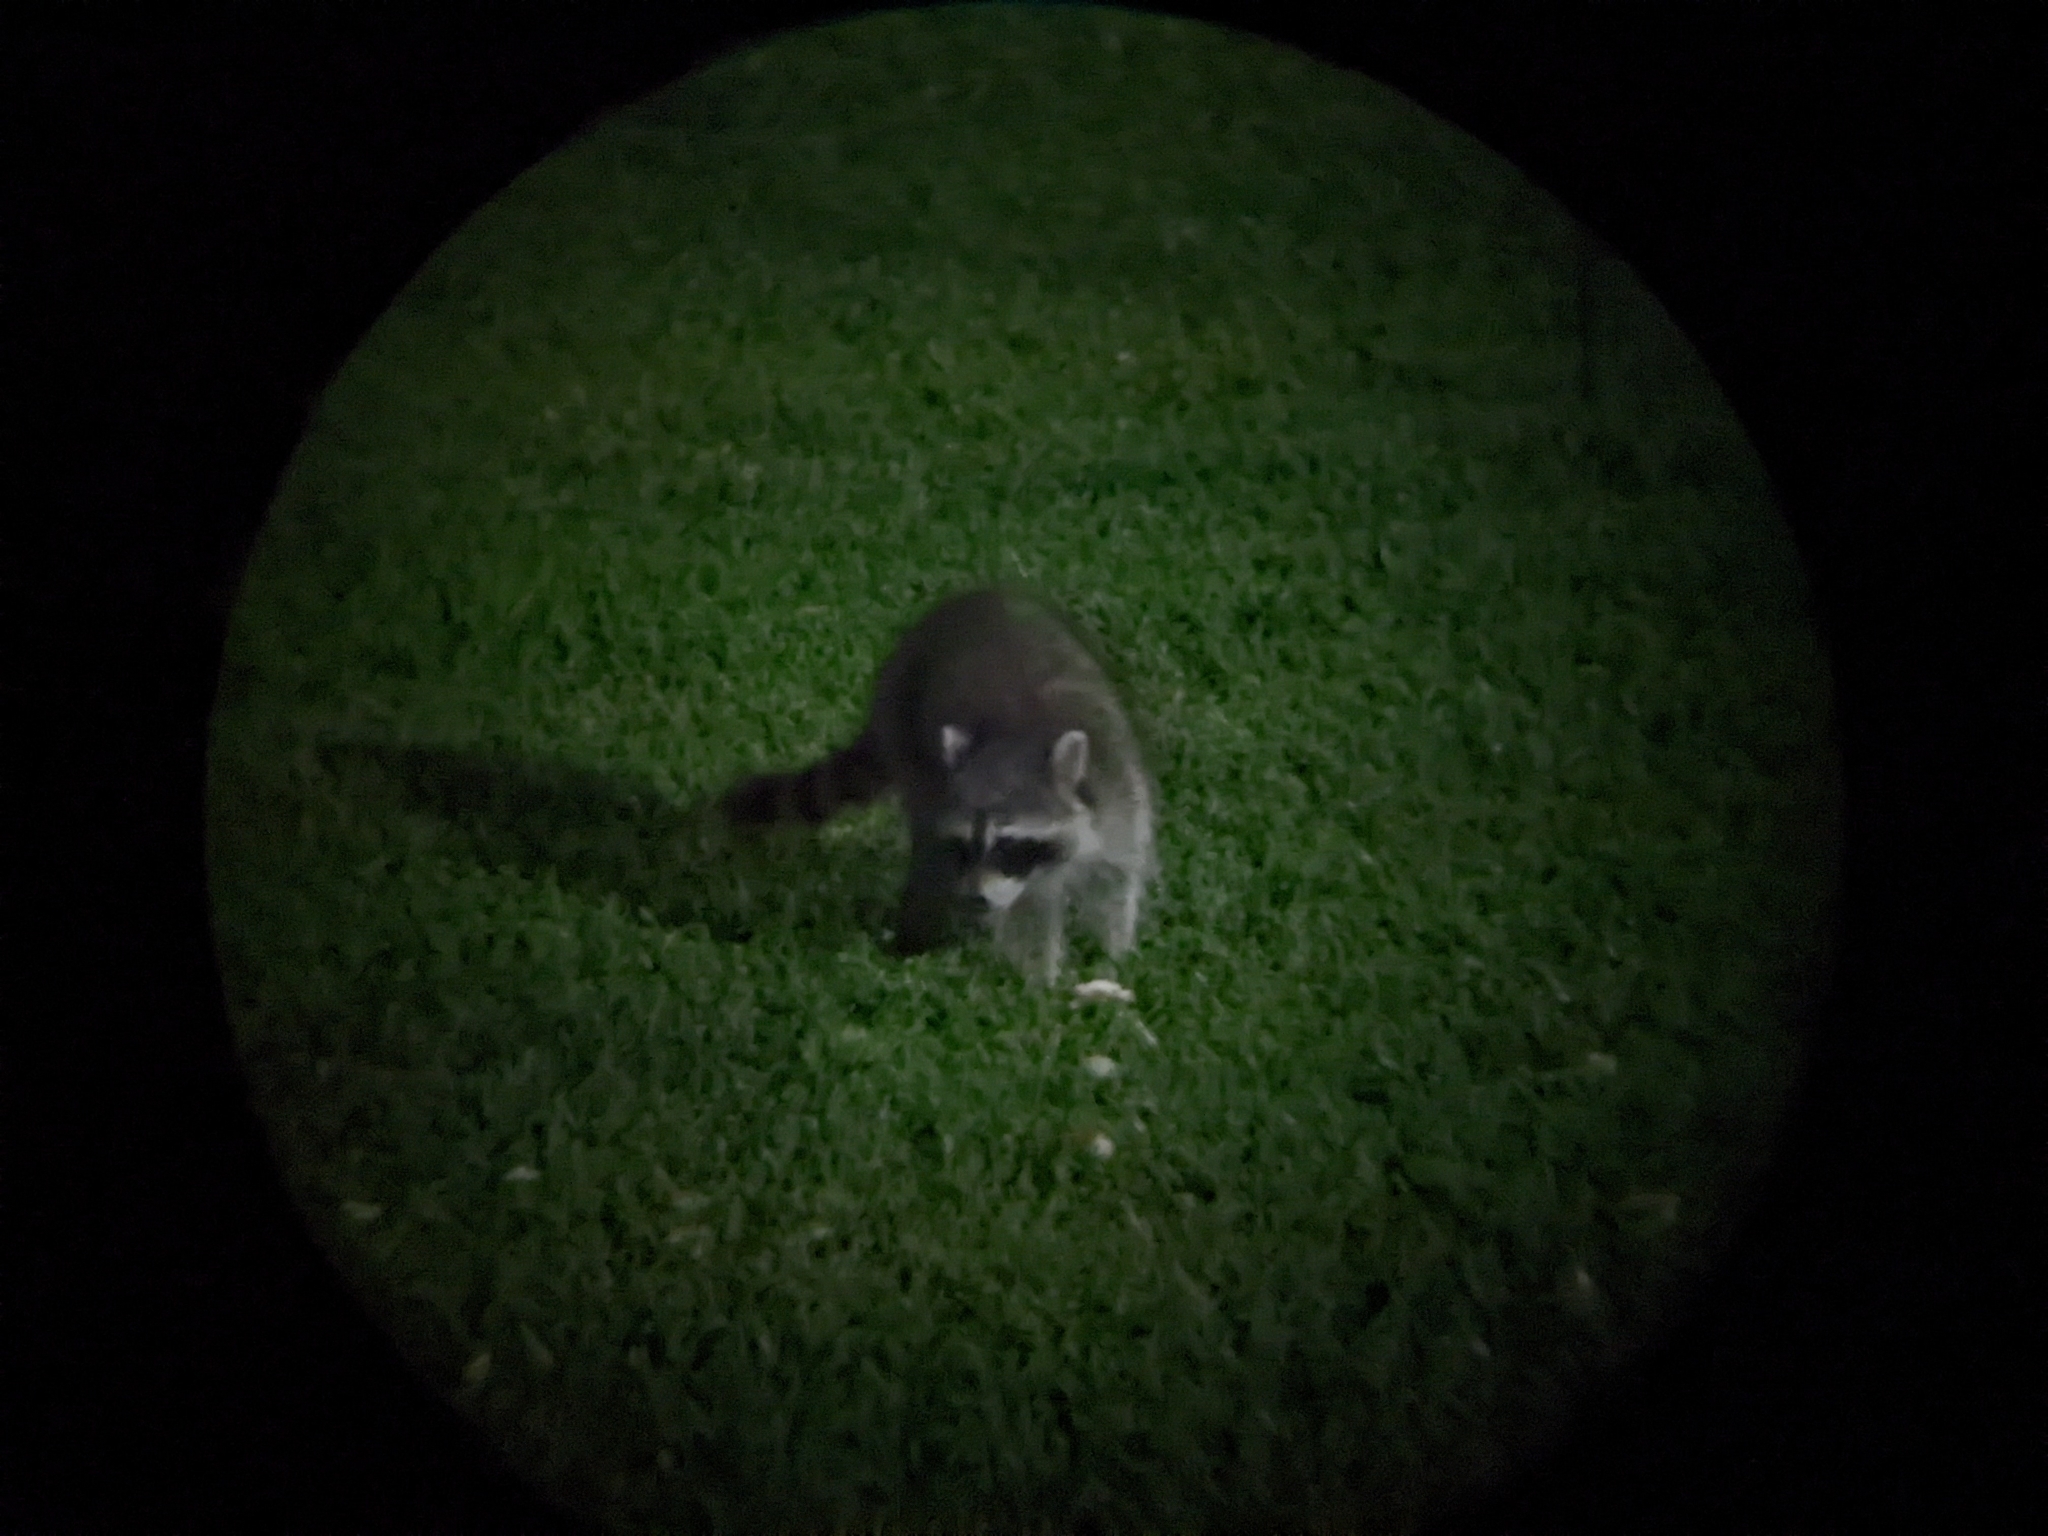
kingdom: Animalia
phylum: Chordata
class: Mammalia
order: Carnivora
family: Procyonidae
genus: Procyon
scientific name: Procyon lotor
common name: Raccoon
